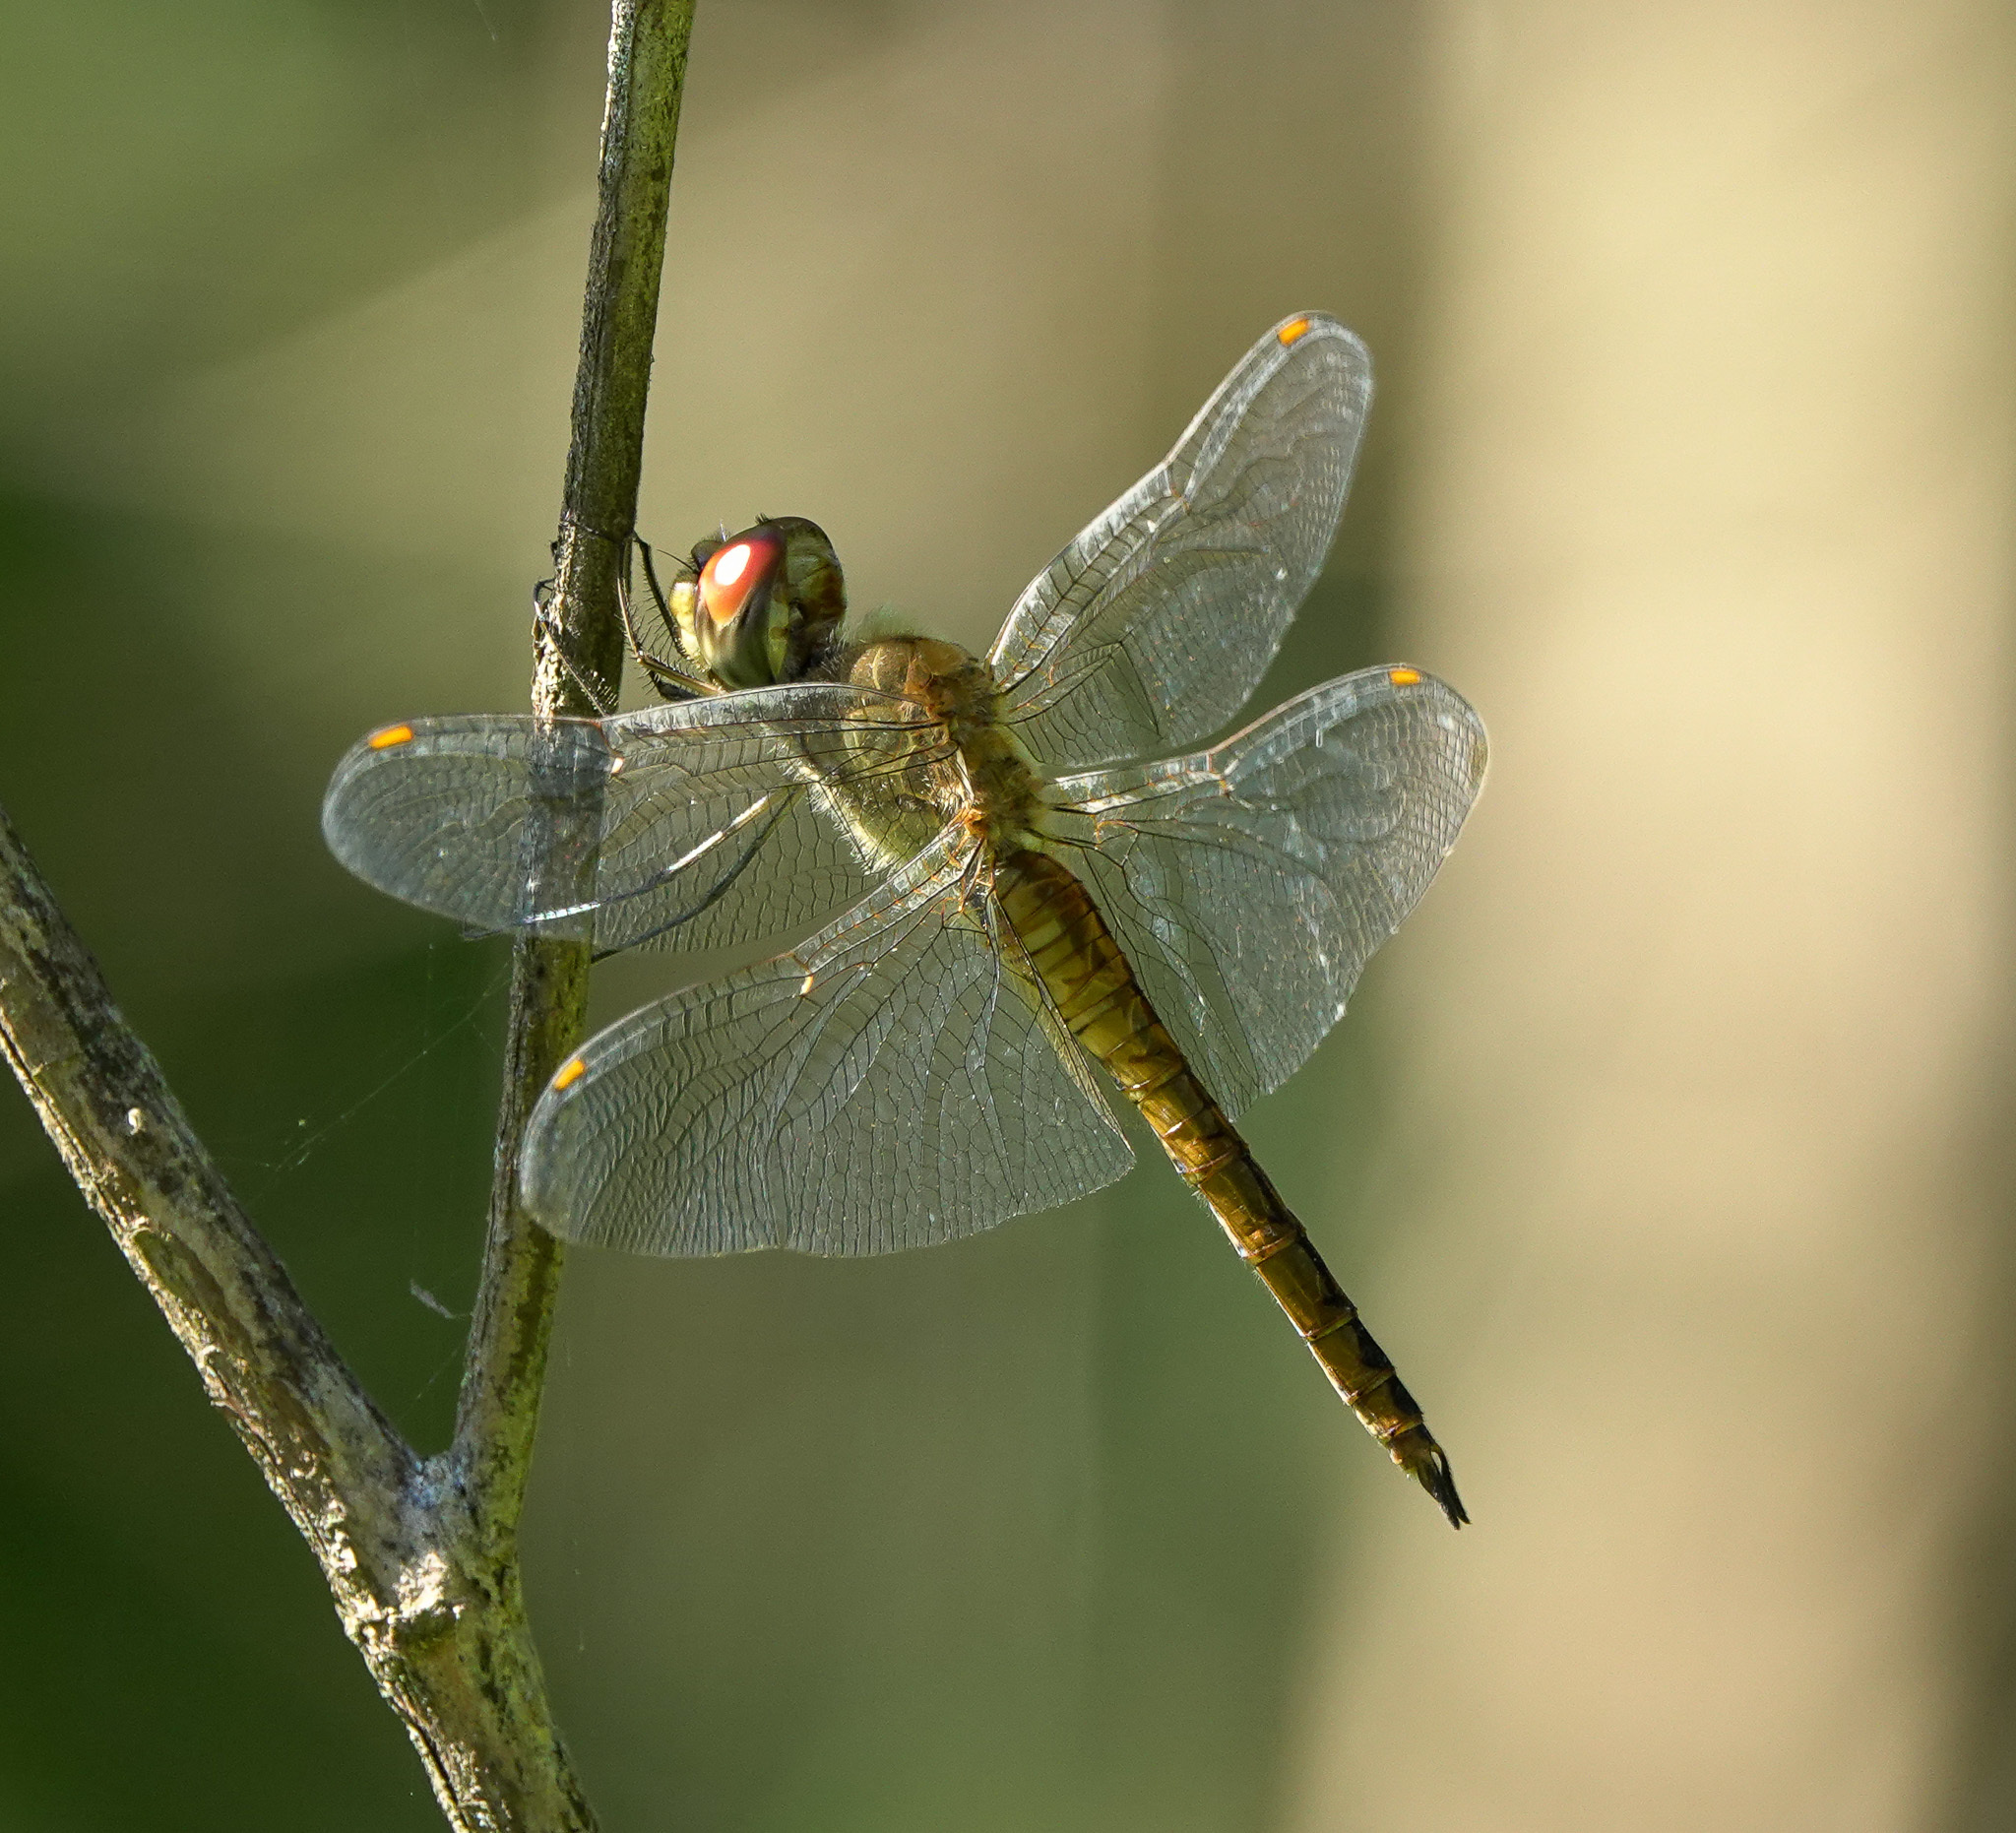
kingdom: Animalia
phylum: Arthropoda
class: Insecta
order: Odonata
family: Libellulidae
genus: Pantala
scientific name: Pantala flavescens
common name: Wandering glider
